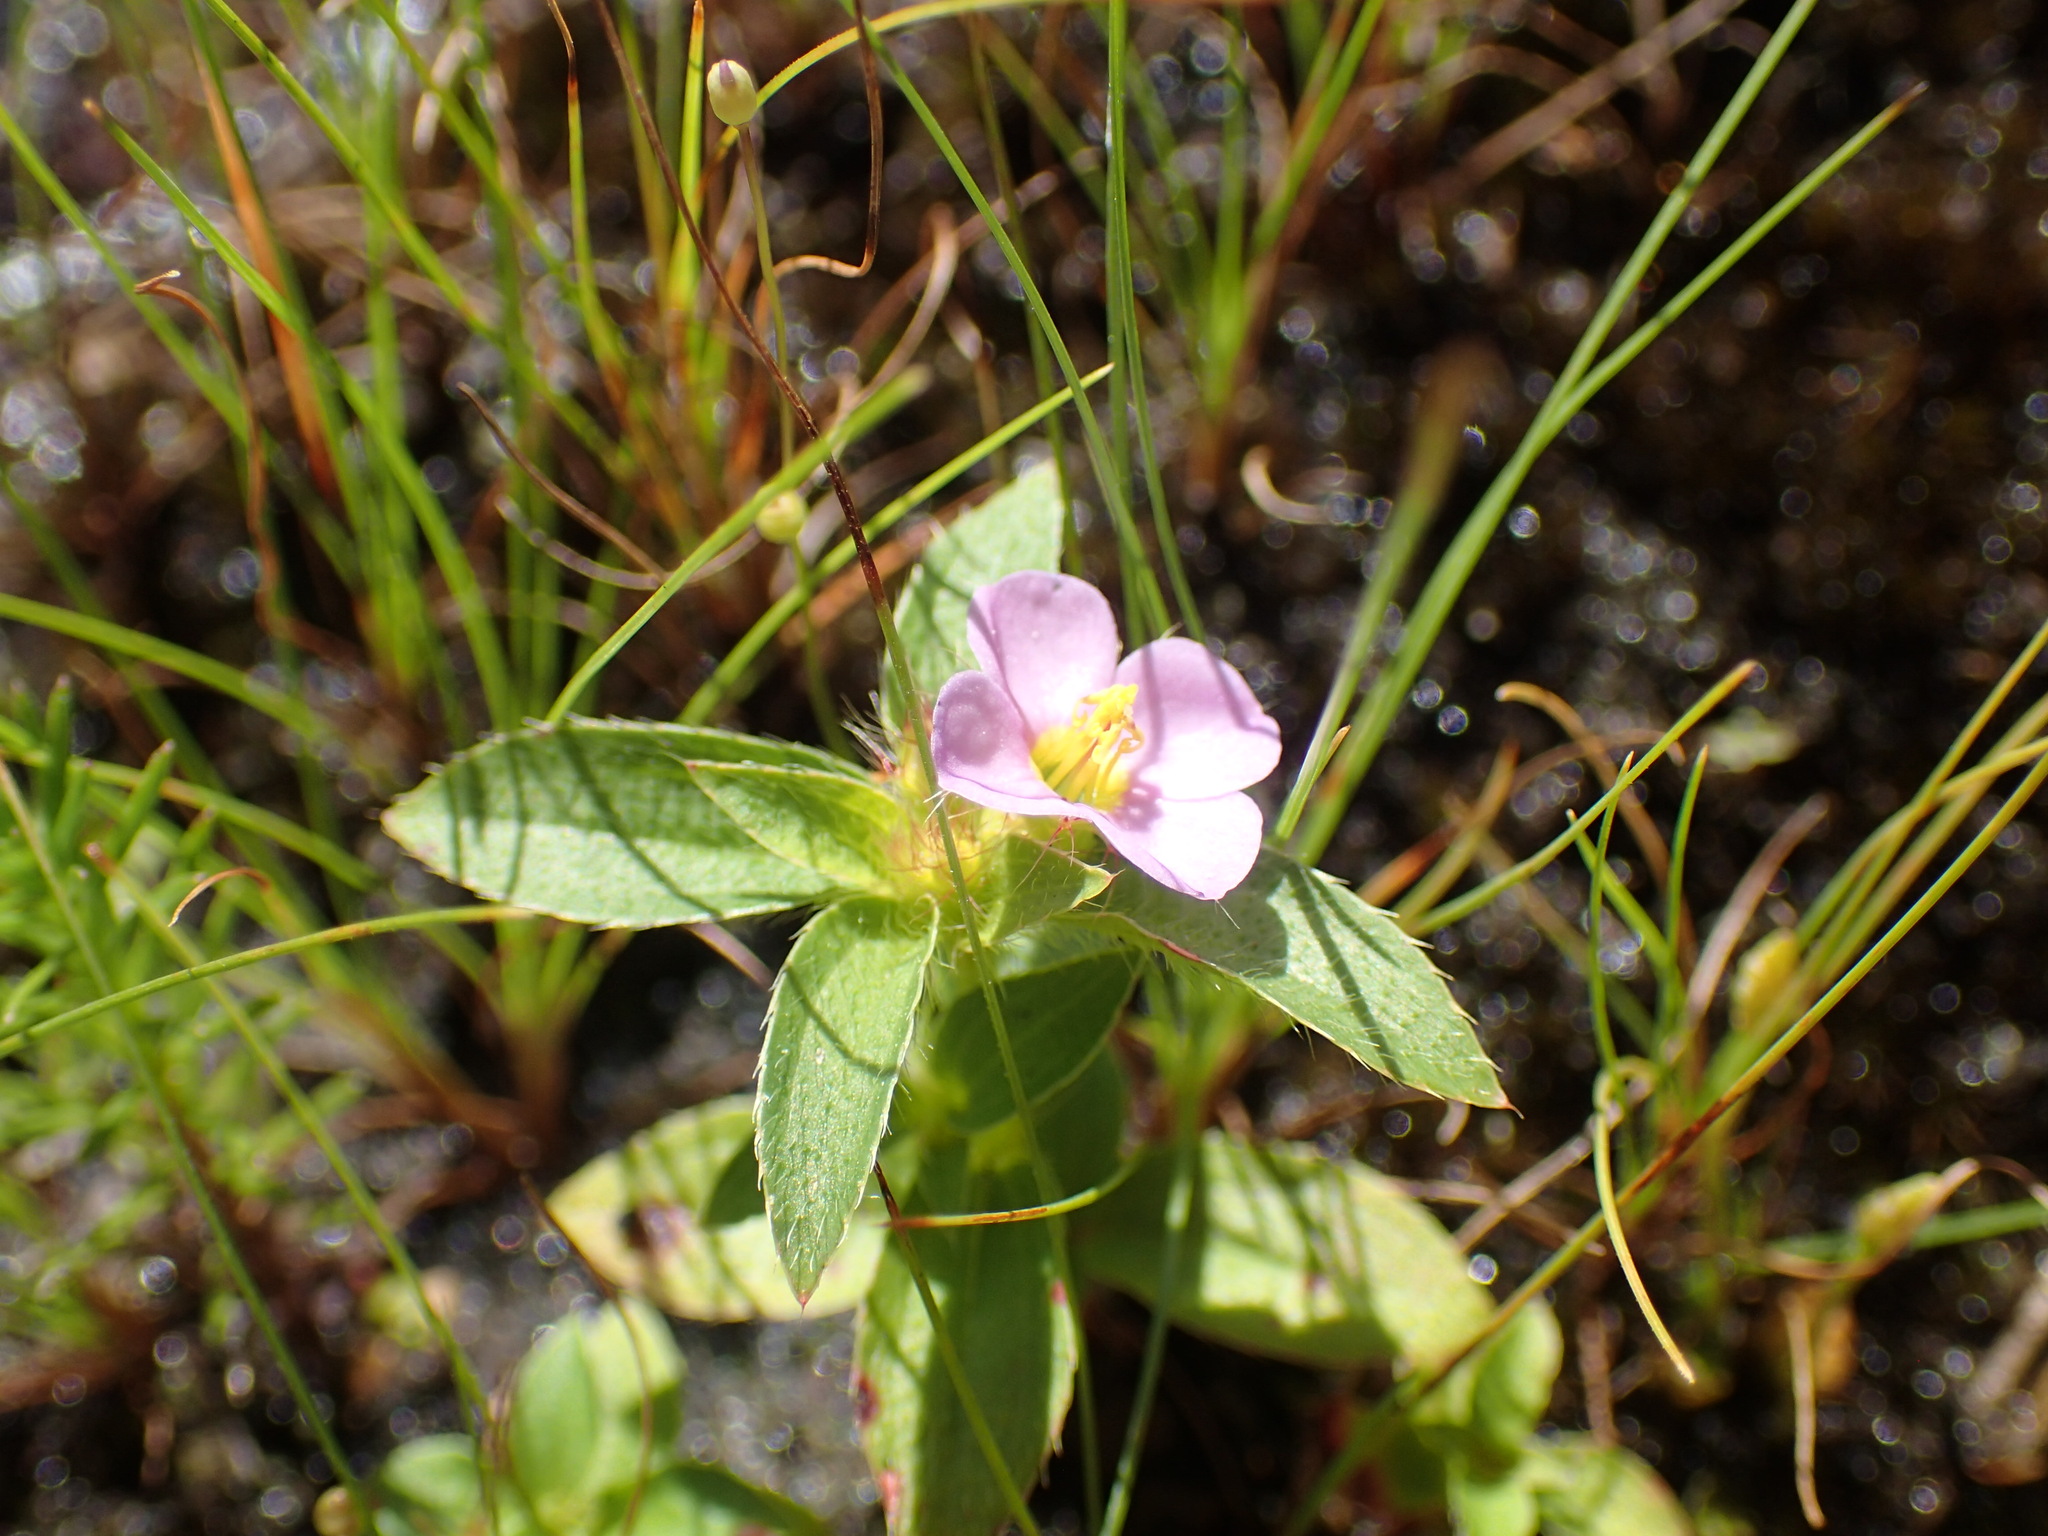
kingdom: Plantae
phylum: Tracheophyta
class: Magnoliopsida
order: Myrtales
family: Melastomataceae
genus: Antherotoma
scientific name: Antherotoma debilis
